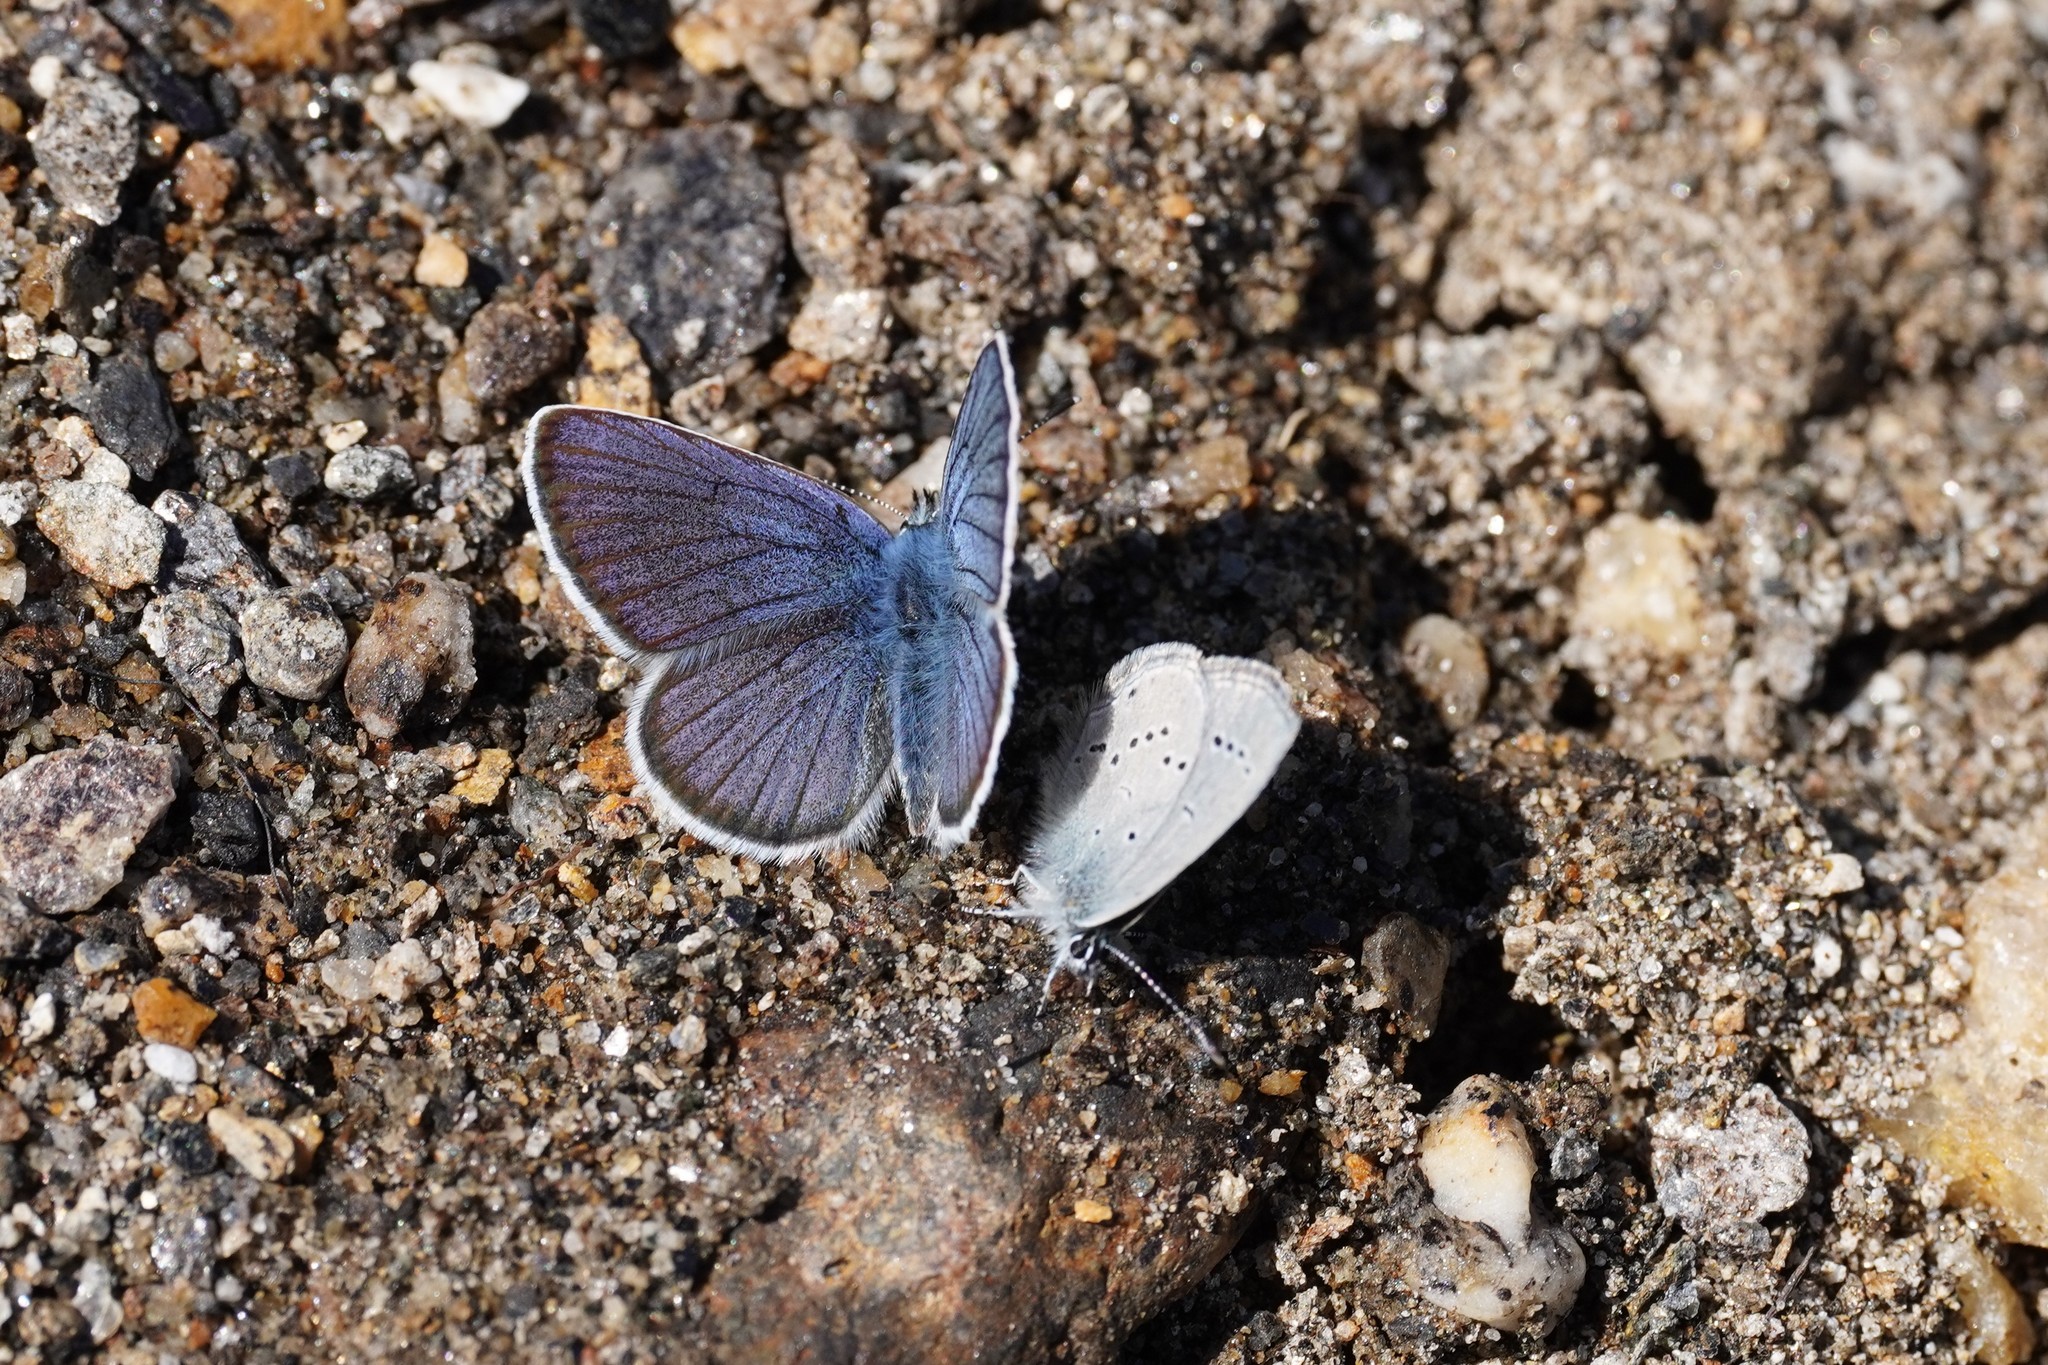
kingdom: Animalia
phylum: Arthropoda
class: Insecta
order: Lepidoptera
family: Lycaenidae
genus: Cyaniris
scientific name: Cyaniris semiargus
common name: Mazarine blue
